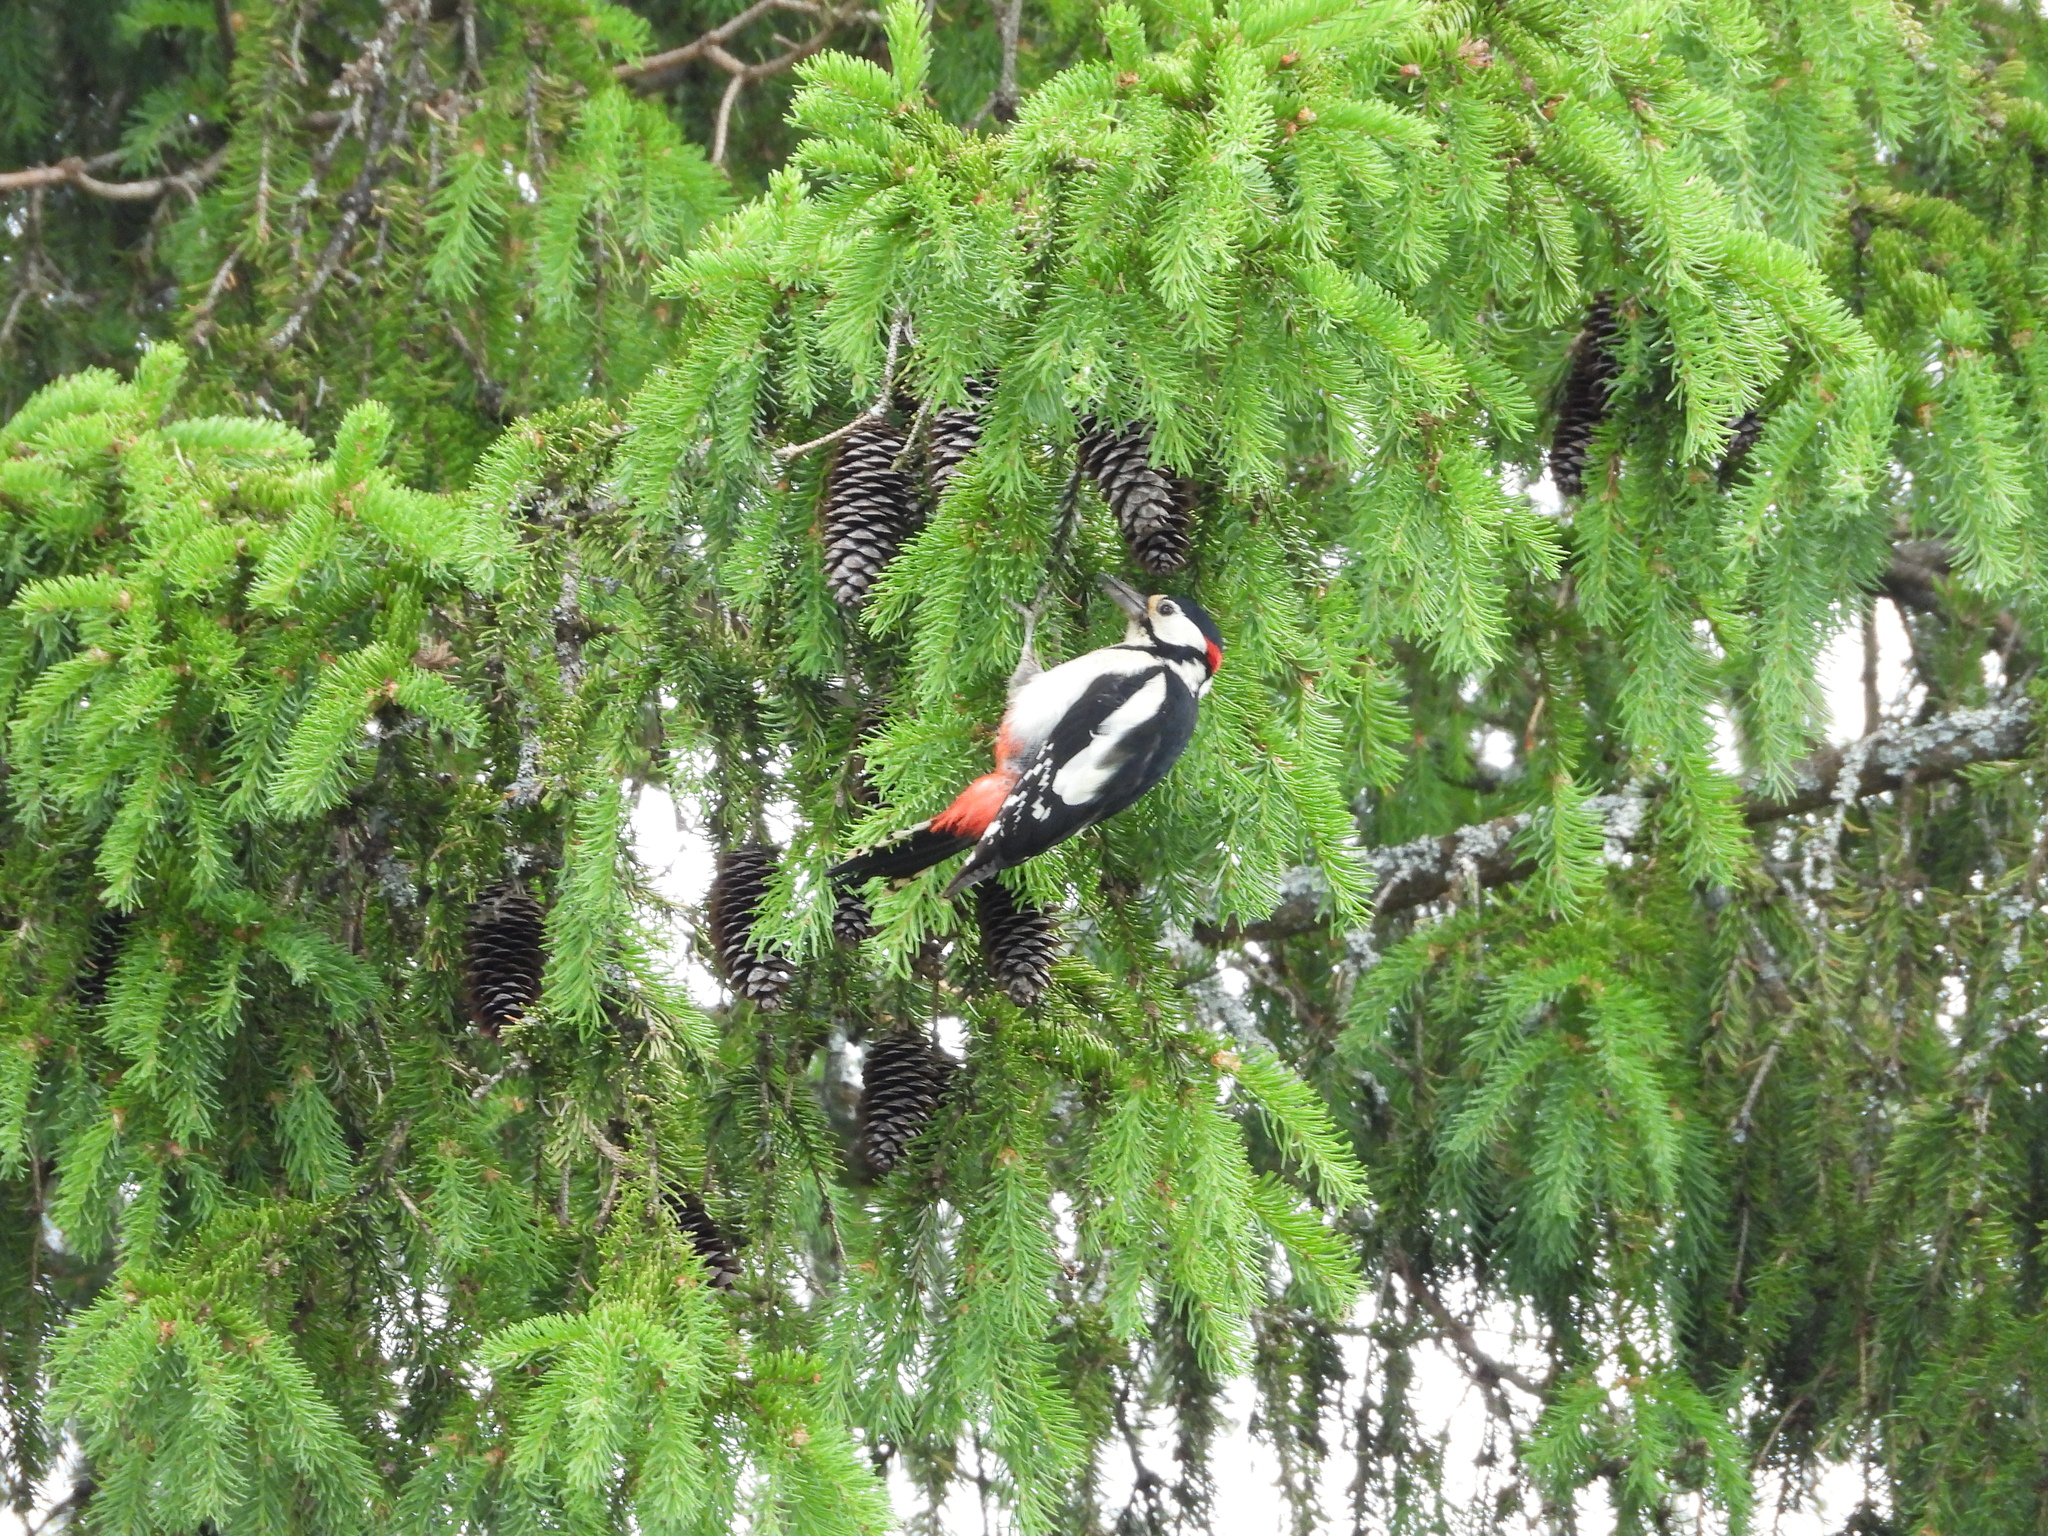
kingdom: Animalia
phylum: Chordata
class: Aves
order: Piciformes
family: Picidae
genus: Dendrocopos
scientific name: Dendrocopos major
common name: Great spotted woodpecker
